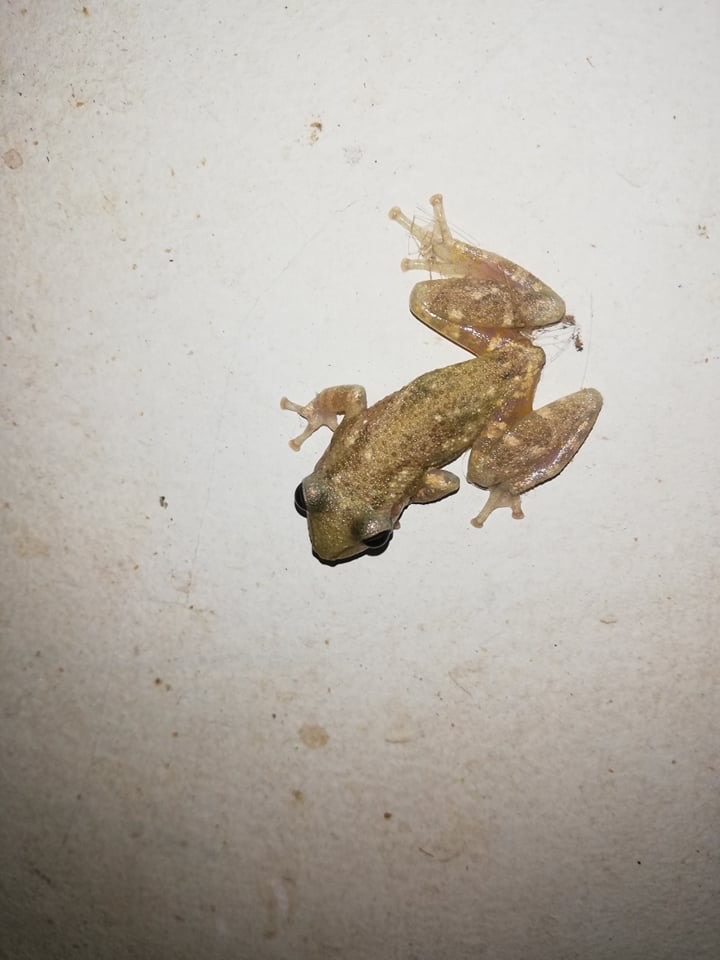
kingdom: Animalia
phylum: Chordata
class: Amphibia
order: Anura
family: Hylidae
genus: Dendropsophus
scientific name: Dendropsophus sanborni
